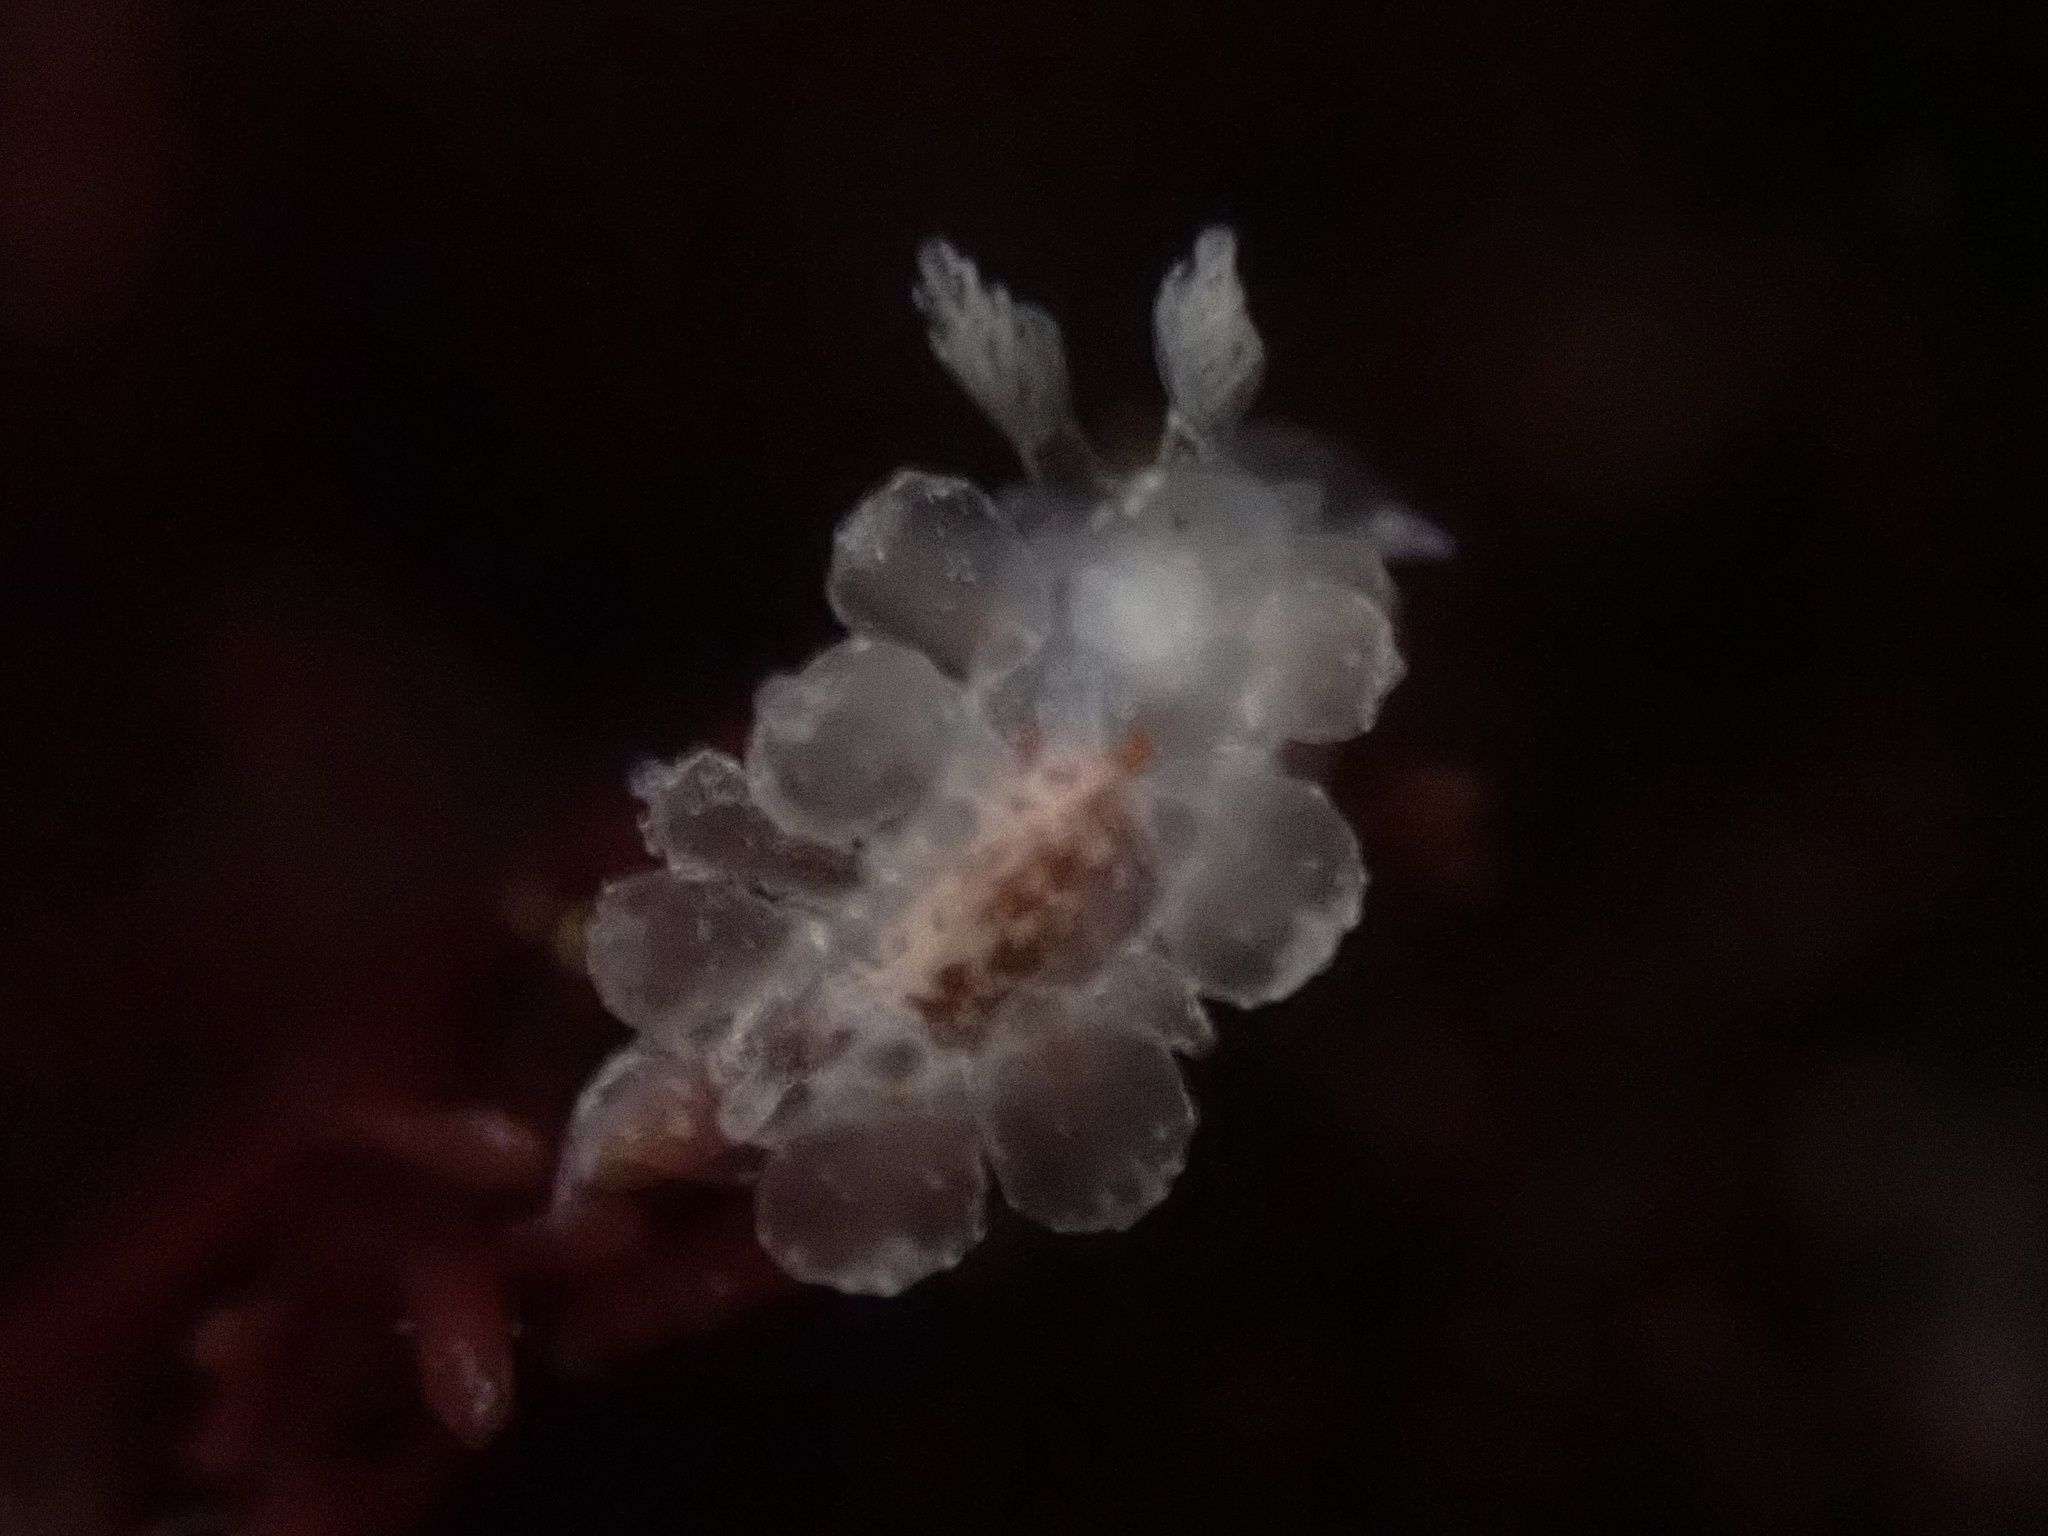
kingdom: Animalia
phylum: Mollusca
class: Gastropoda
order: Nudibranchia
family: Dironidae
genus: Dirona
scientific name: Dirona picta
